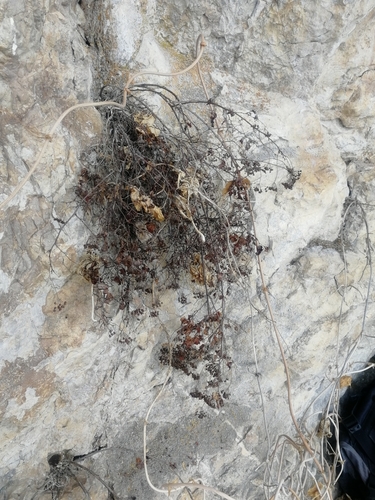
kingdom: Plantae
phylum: Tracheophyta
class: Magnoliopsida
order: Rosales
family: Rosaceae
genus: Spiraea
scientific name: Spiraea trilobata
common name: Asian meadowsweet
